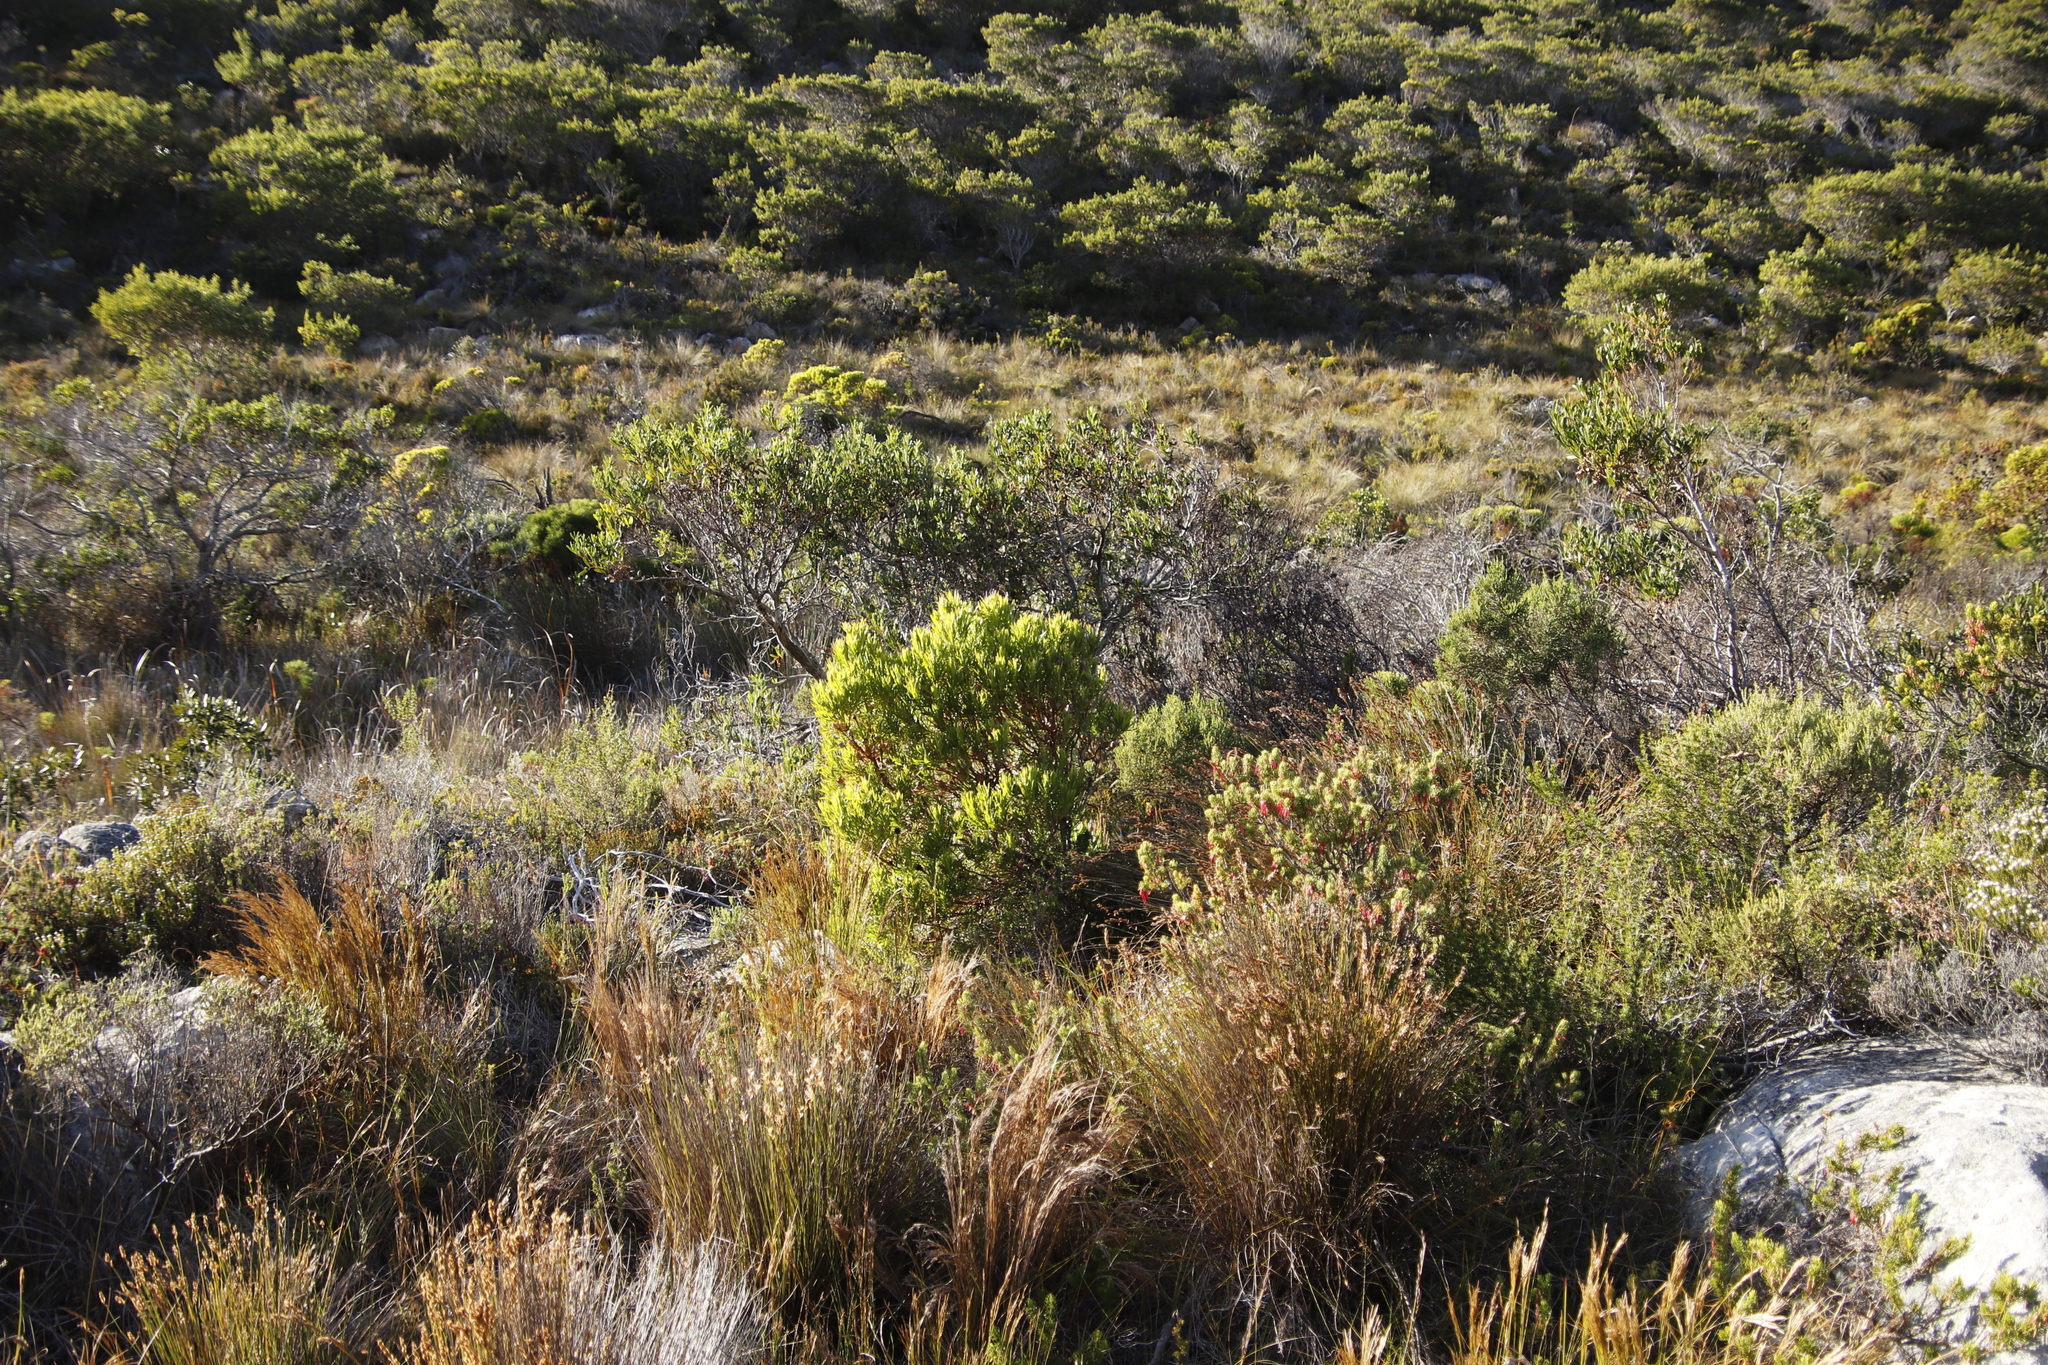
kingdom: Plantae
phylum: Tracheophyta
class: Magnoliopsida
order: Proteales
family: Proteaceae
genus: Leucadendron
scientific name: Leucadendron xanthoconus
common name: Sickle-leaf conebush
